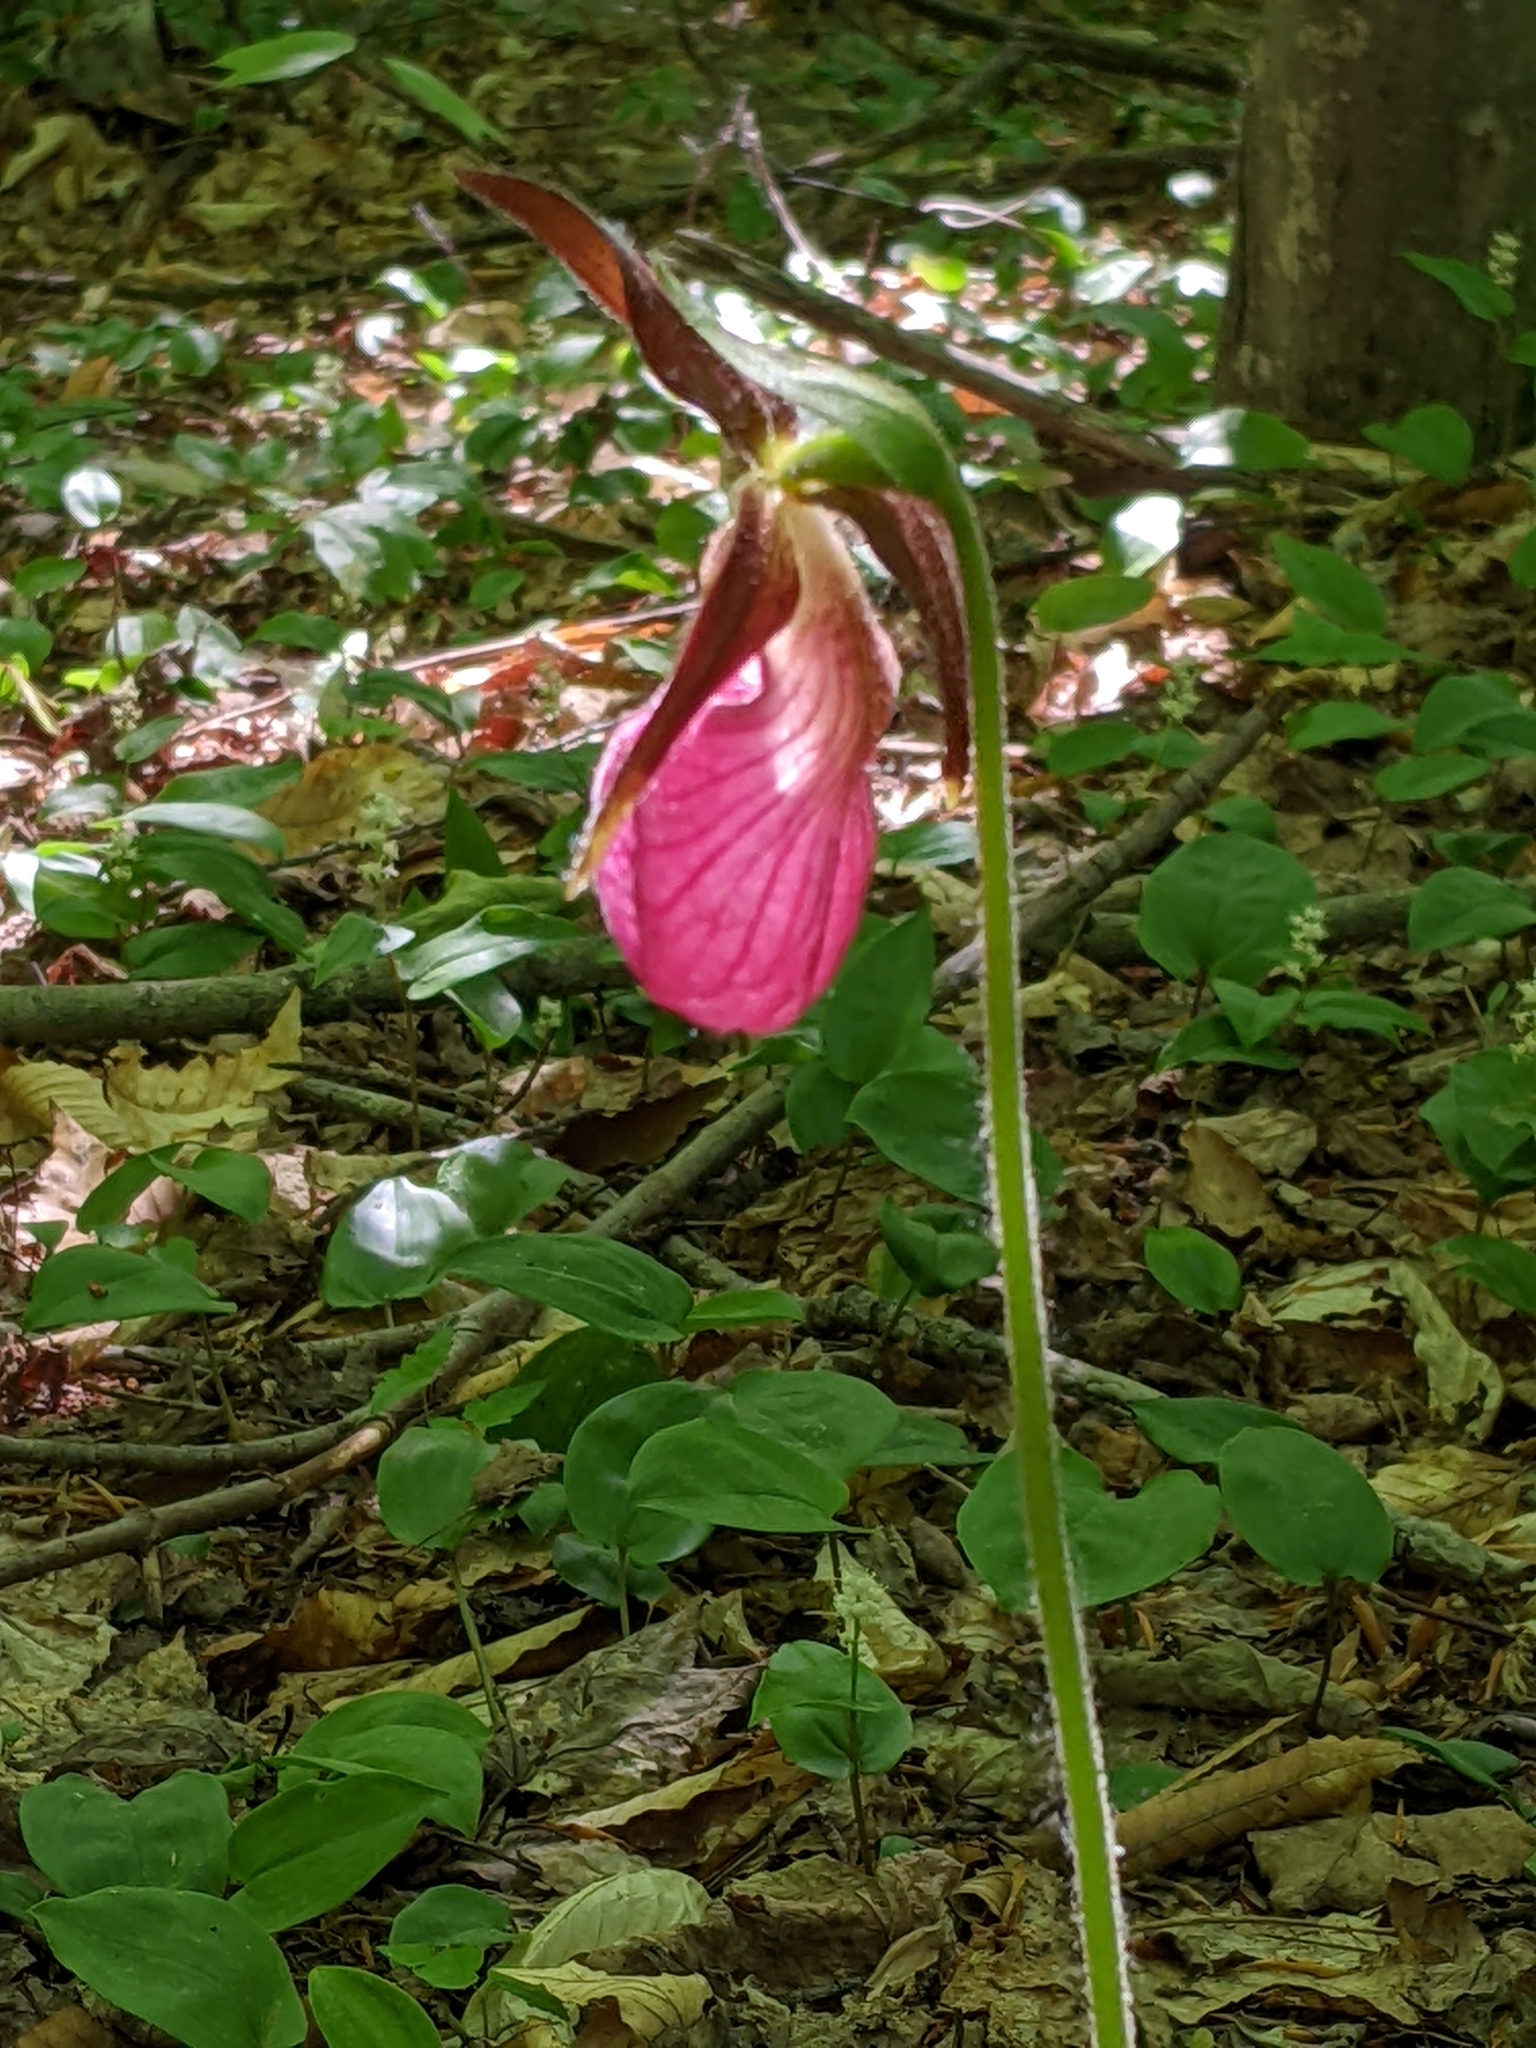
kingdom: Plantae
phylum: Tracheophyta
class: Liliopsida
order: Asparagales
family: Orchidaceae
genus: Cypripedium
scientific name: Cypripedium acaule
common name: Pink lady's-slipper
